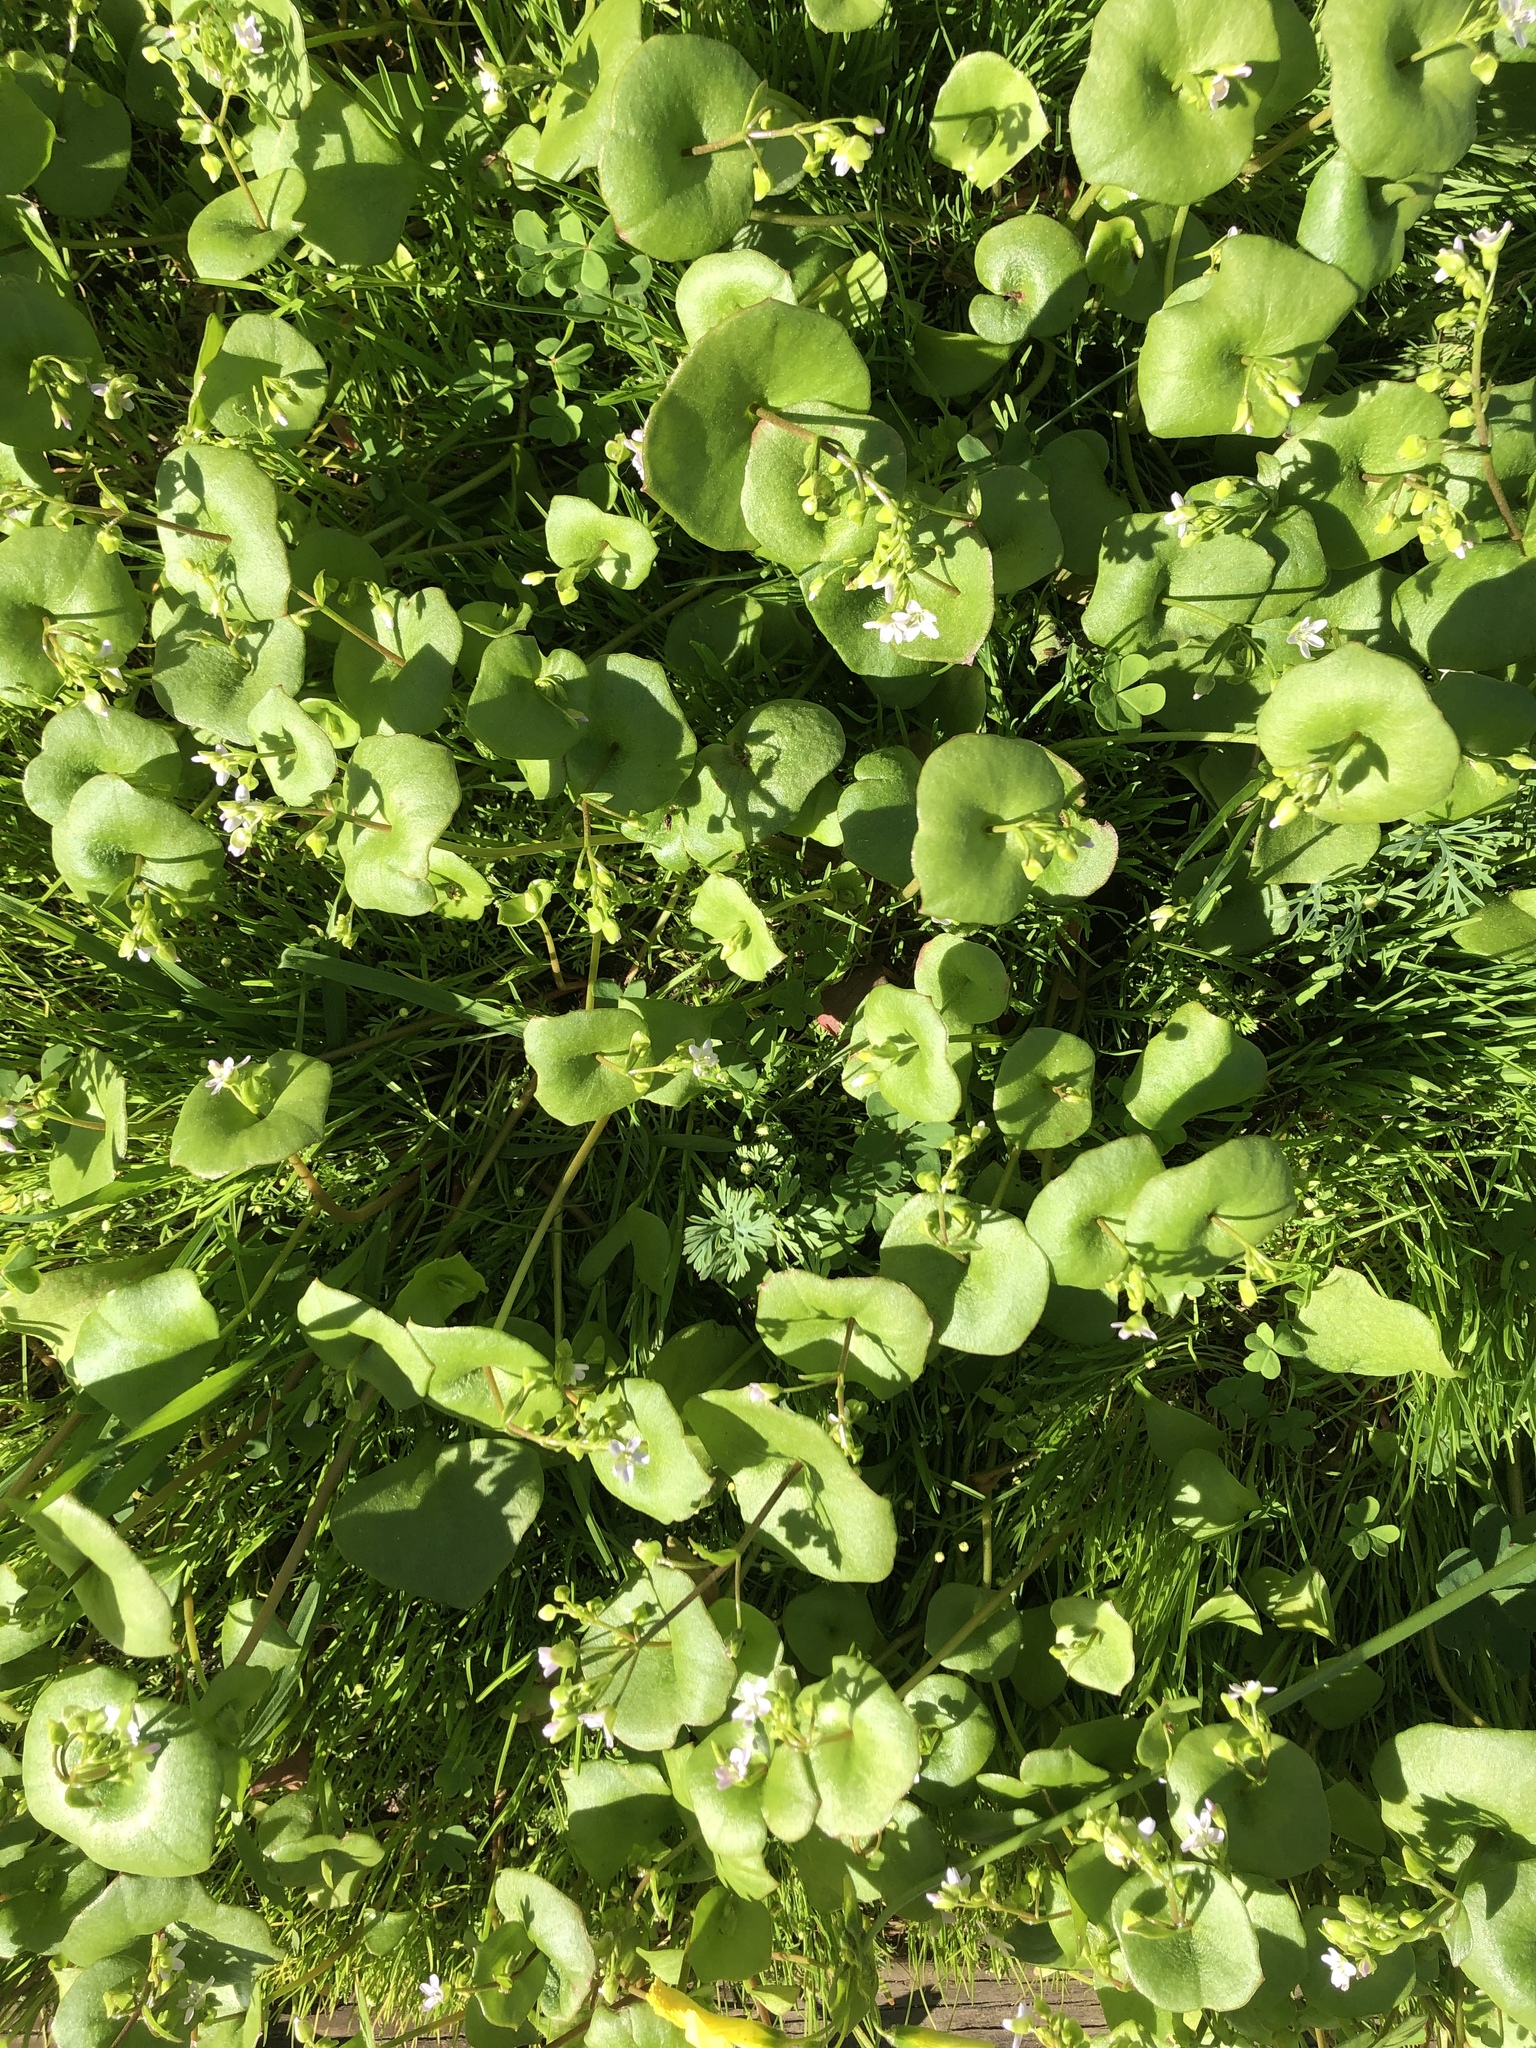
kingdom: Plantae
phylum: Tracheophyta
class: Magnoliopsida
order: Caryophyllales
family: Montiaceae
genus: Claytonia
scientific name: Claytonia perfoliata
